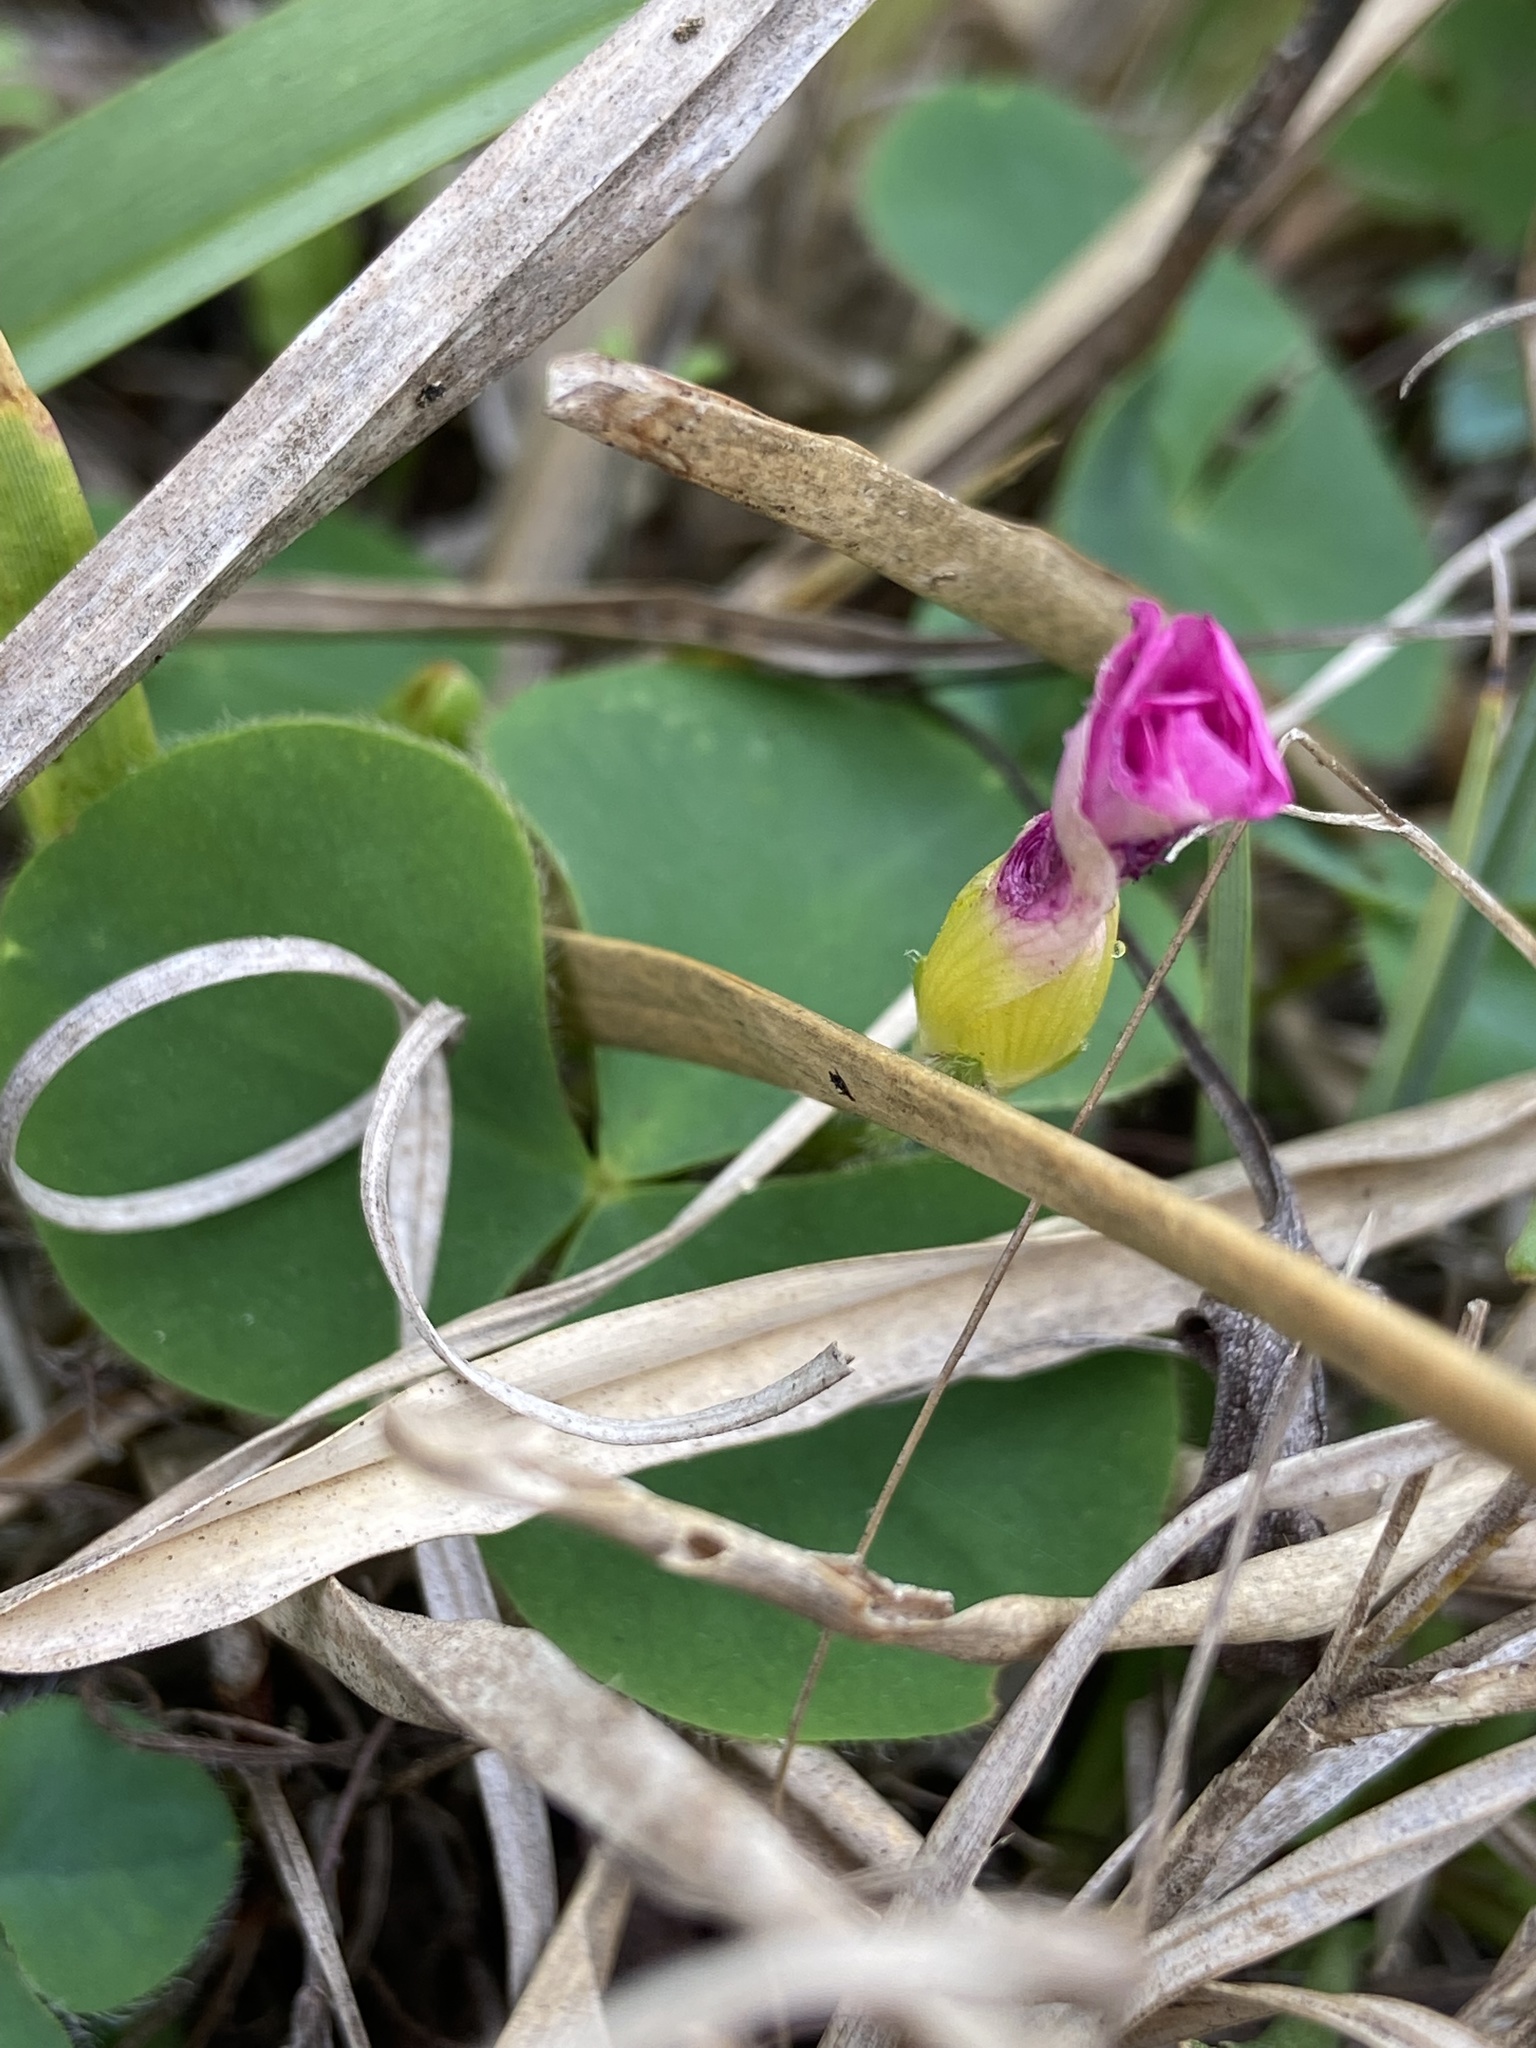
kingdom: Plantae
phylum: Tracheophyta
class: Magnoliopsida
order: Oxalidales
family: Oxalidaceae
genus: Oxalis
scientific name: Oxalis purpurea
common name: Purple woodsorrel
